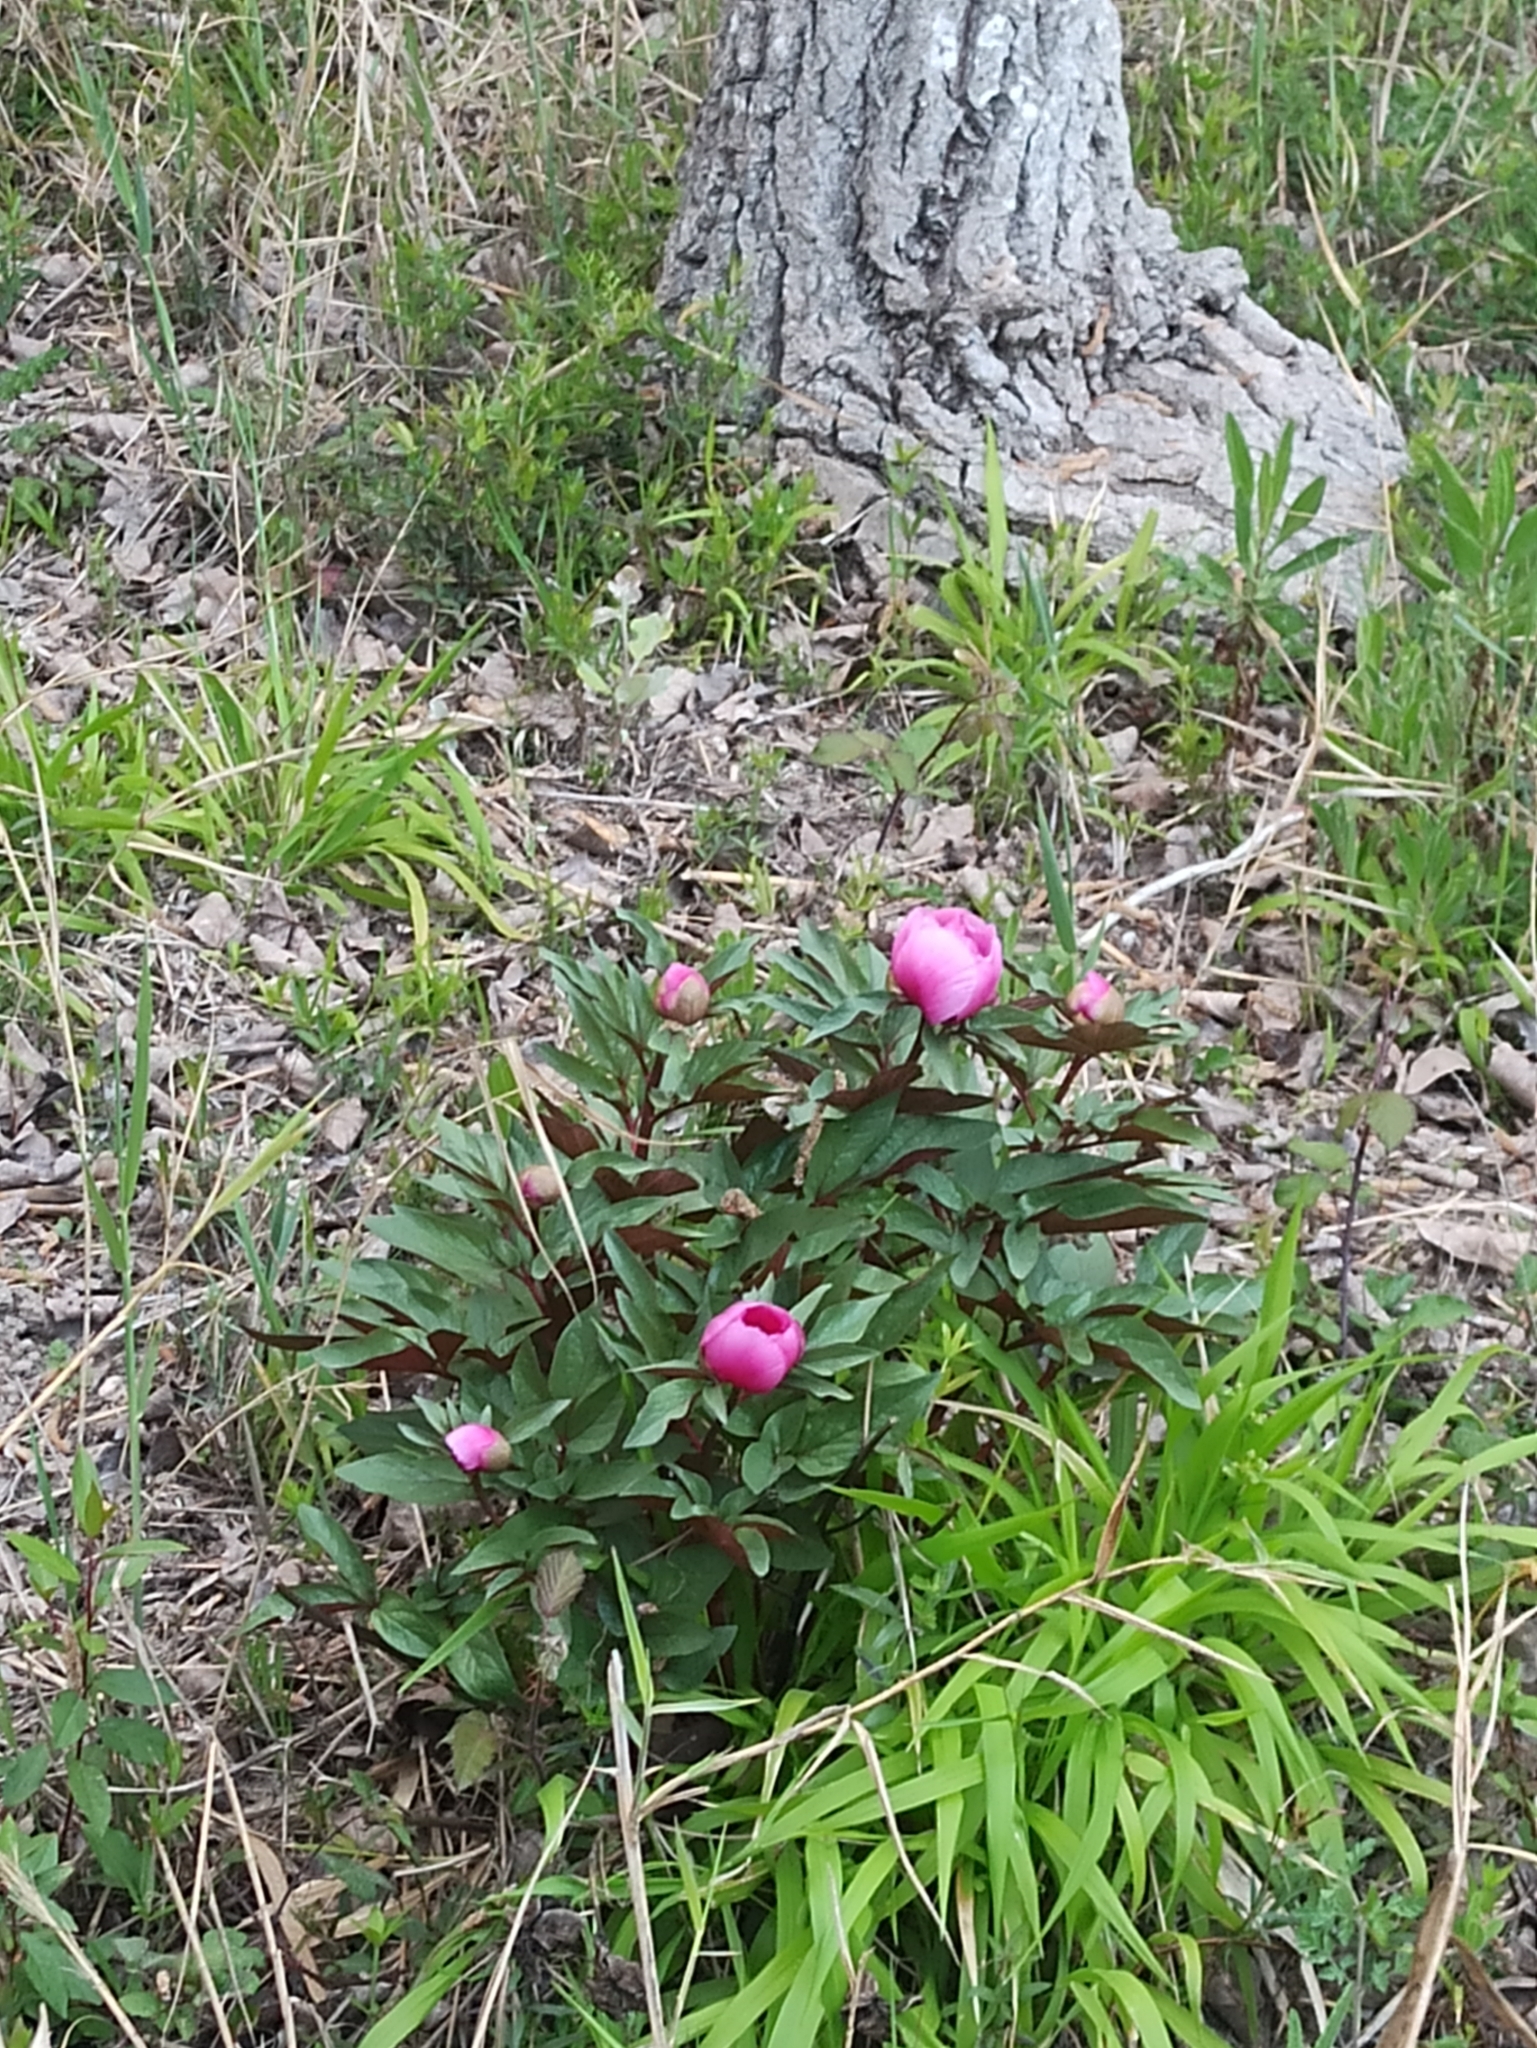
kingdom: Plantae
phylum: Tracheophyta
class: Magnoliopsida
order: Saxifragales
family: Paeoniaceae
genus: Paeonia
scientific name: Paeonia cambessedesii
